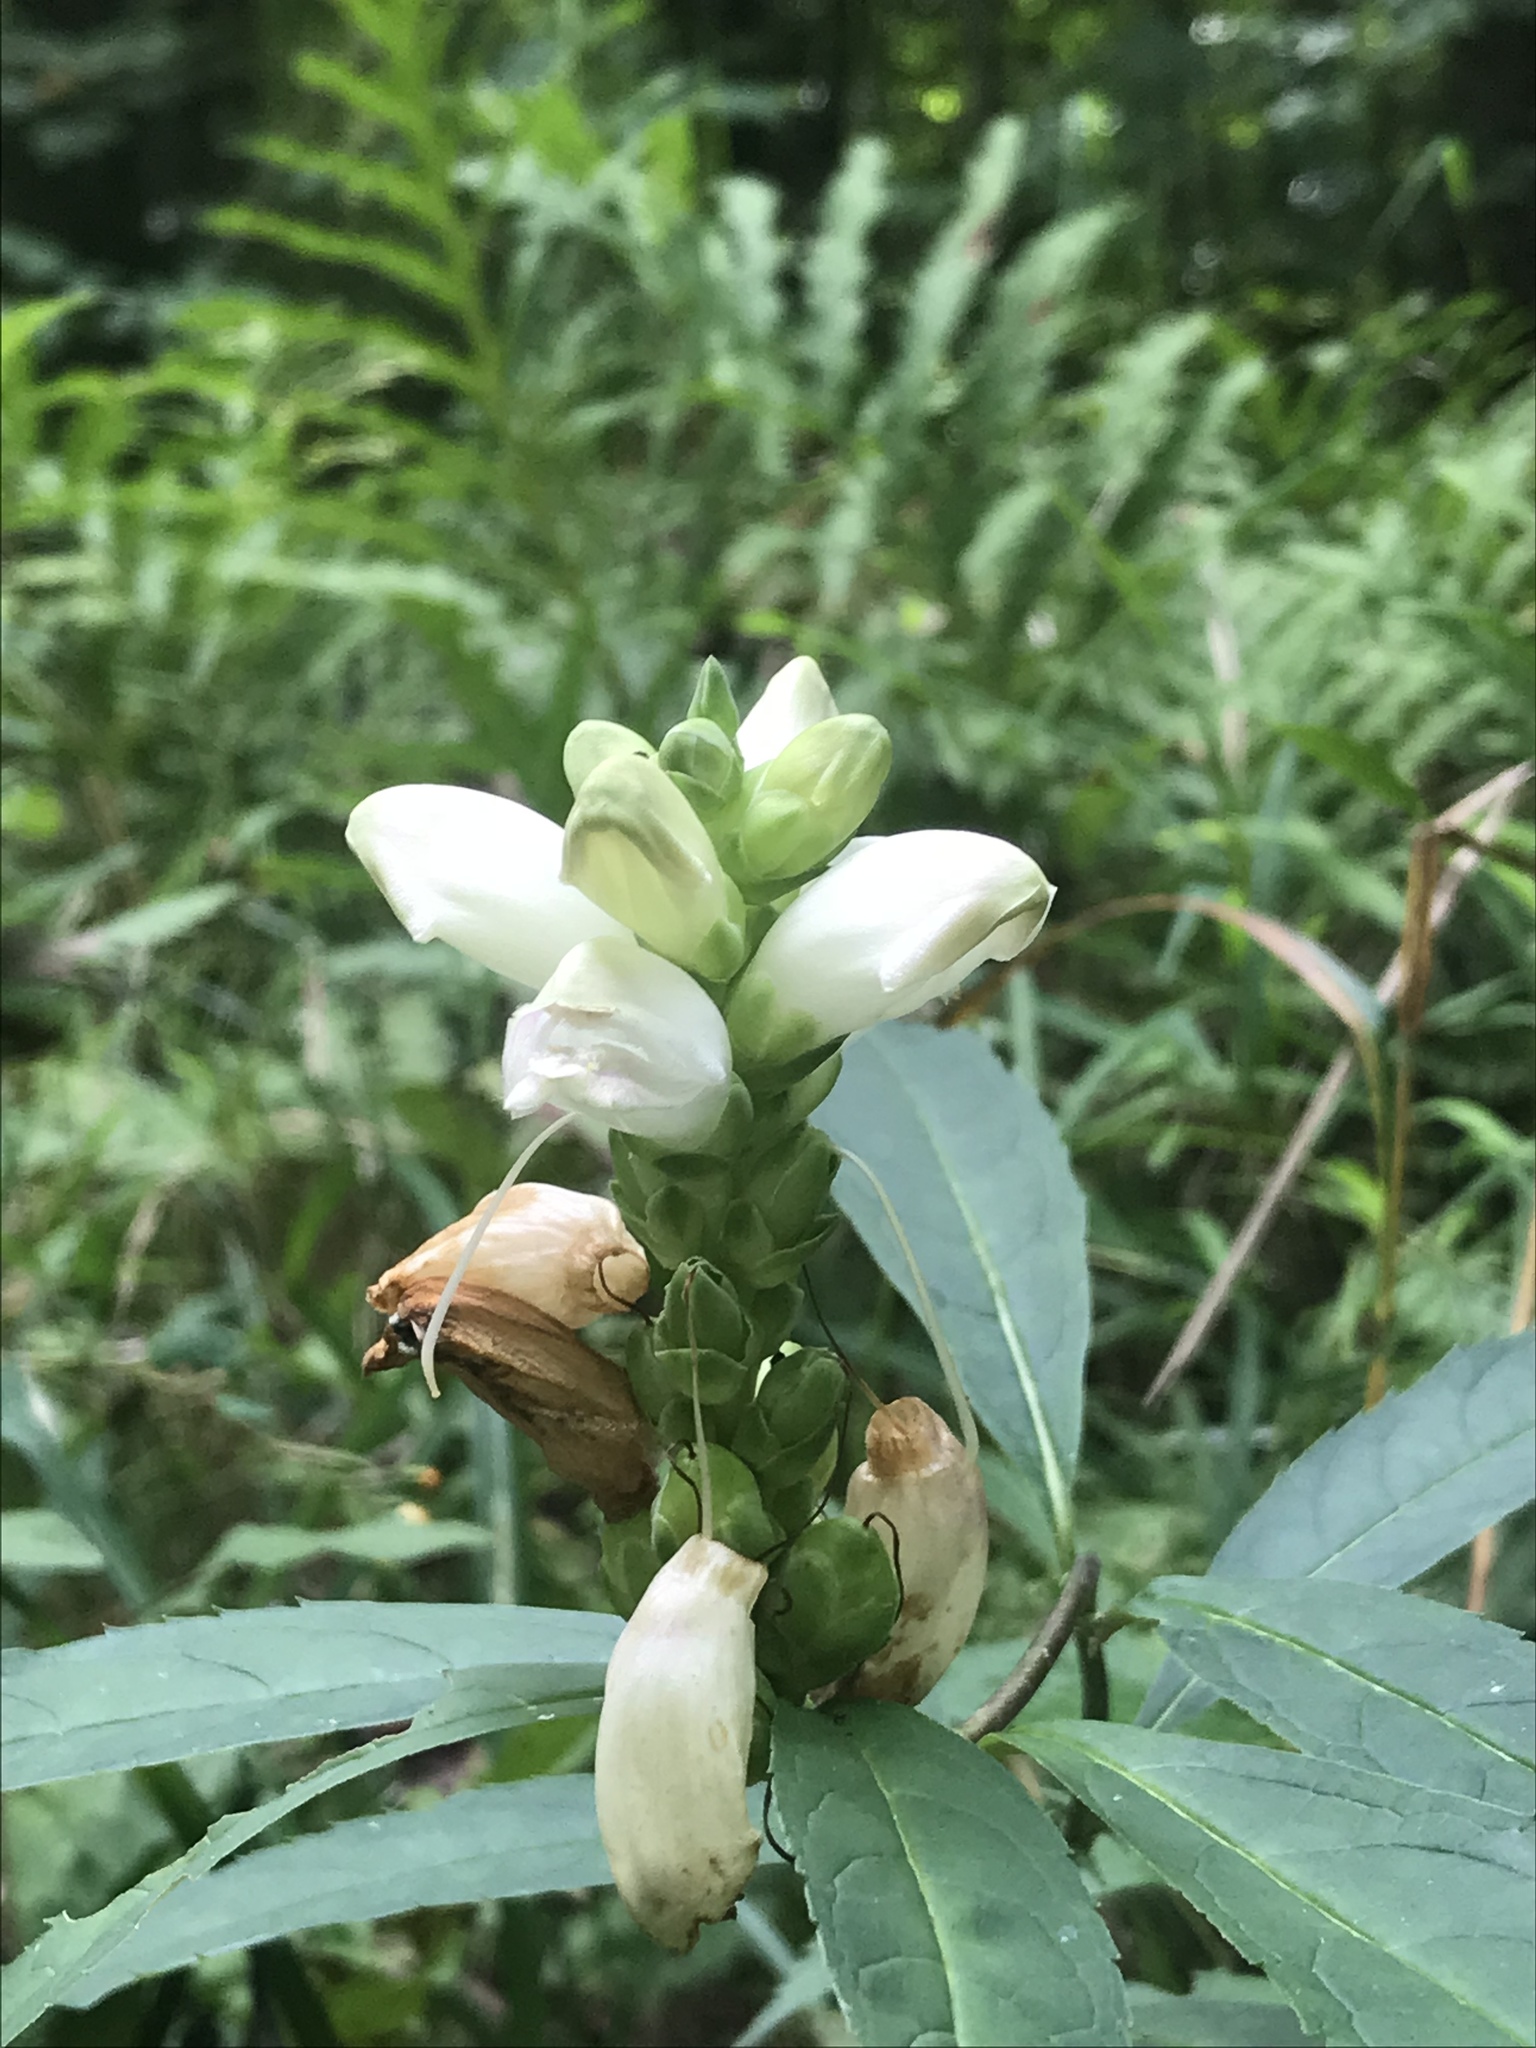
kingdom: Plantae
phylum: Tracheophyta
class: Magnoliopsida
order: Lamiales
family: Plantaginaceae
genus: Chelone
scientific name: Chelone glabra
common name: Snakehead
